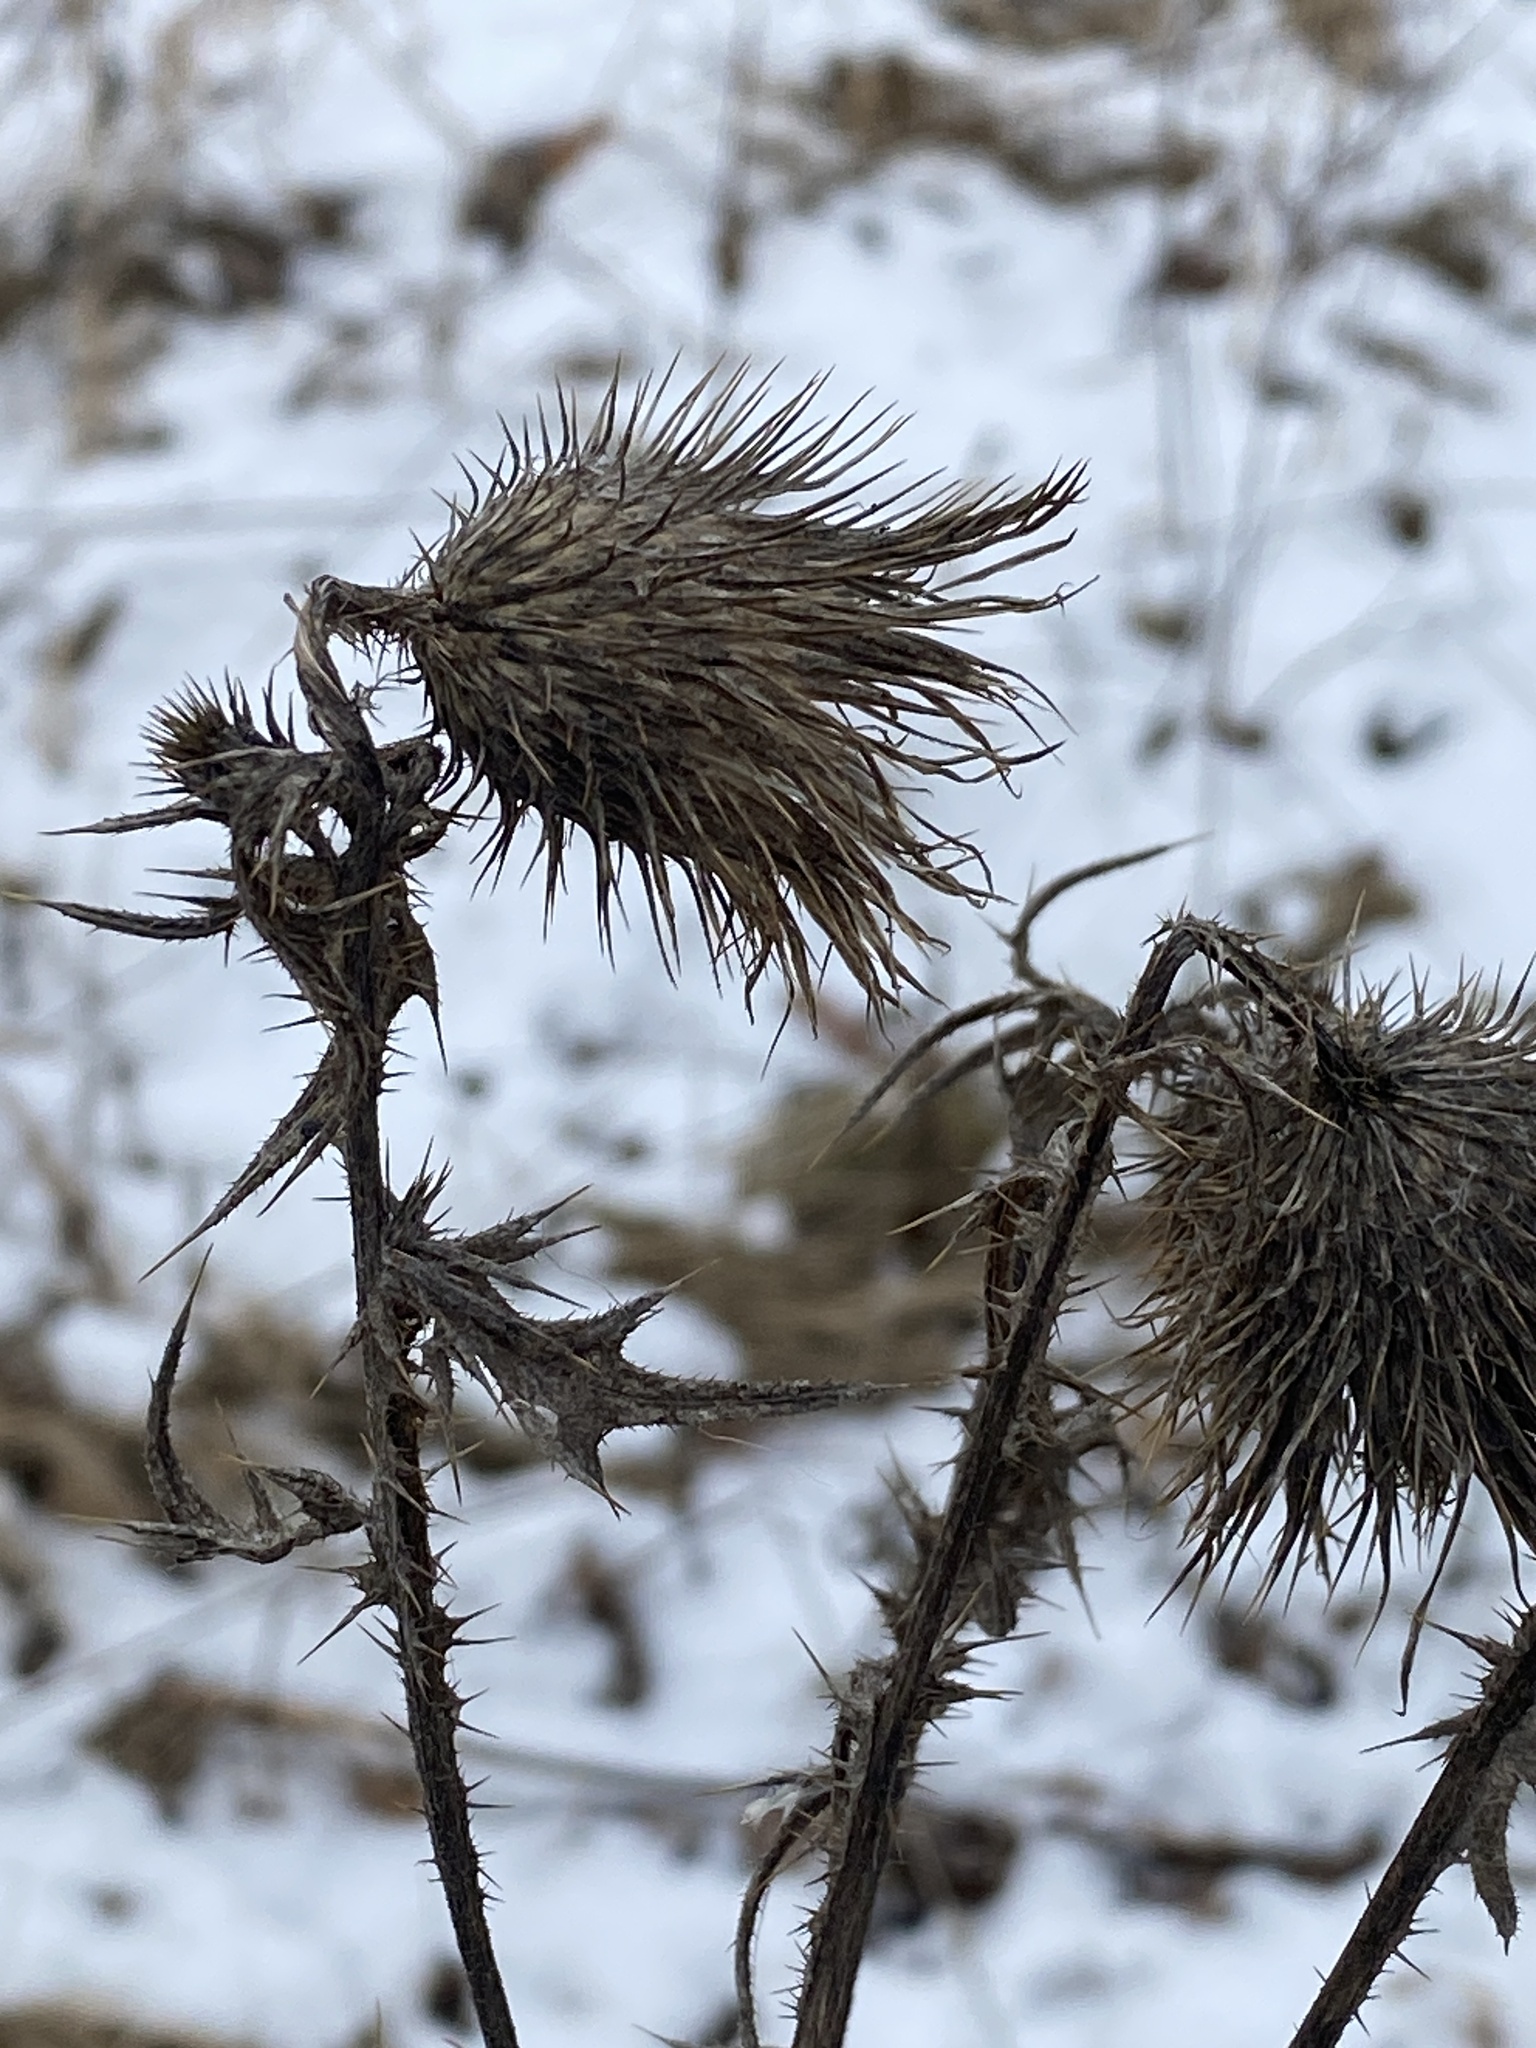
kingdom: Plantae
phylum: Tracheophyta
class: Magnoliopsida
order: Asterales
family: Asteraceae
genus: Cirsium
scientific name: Cirsium vulgare
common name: Bull thistle
